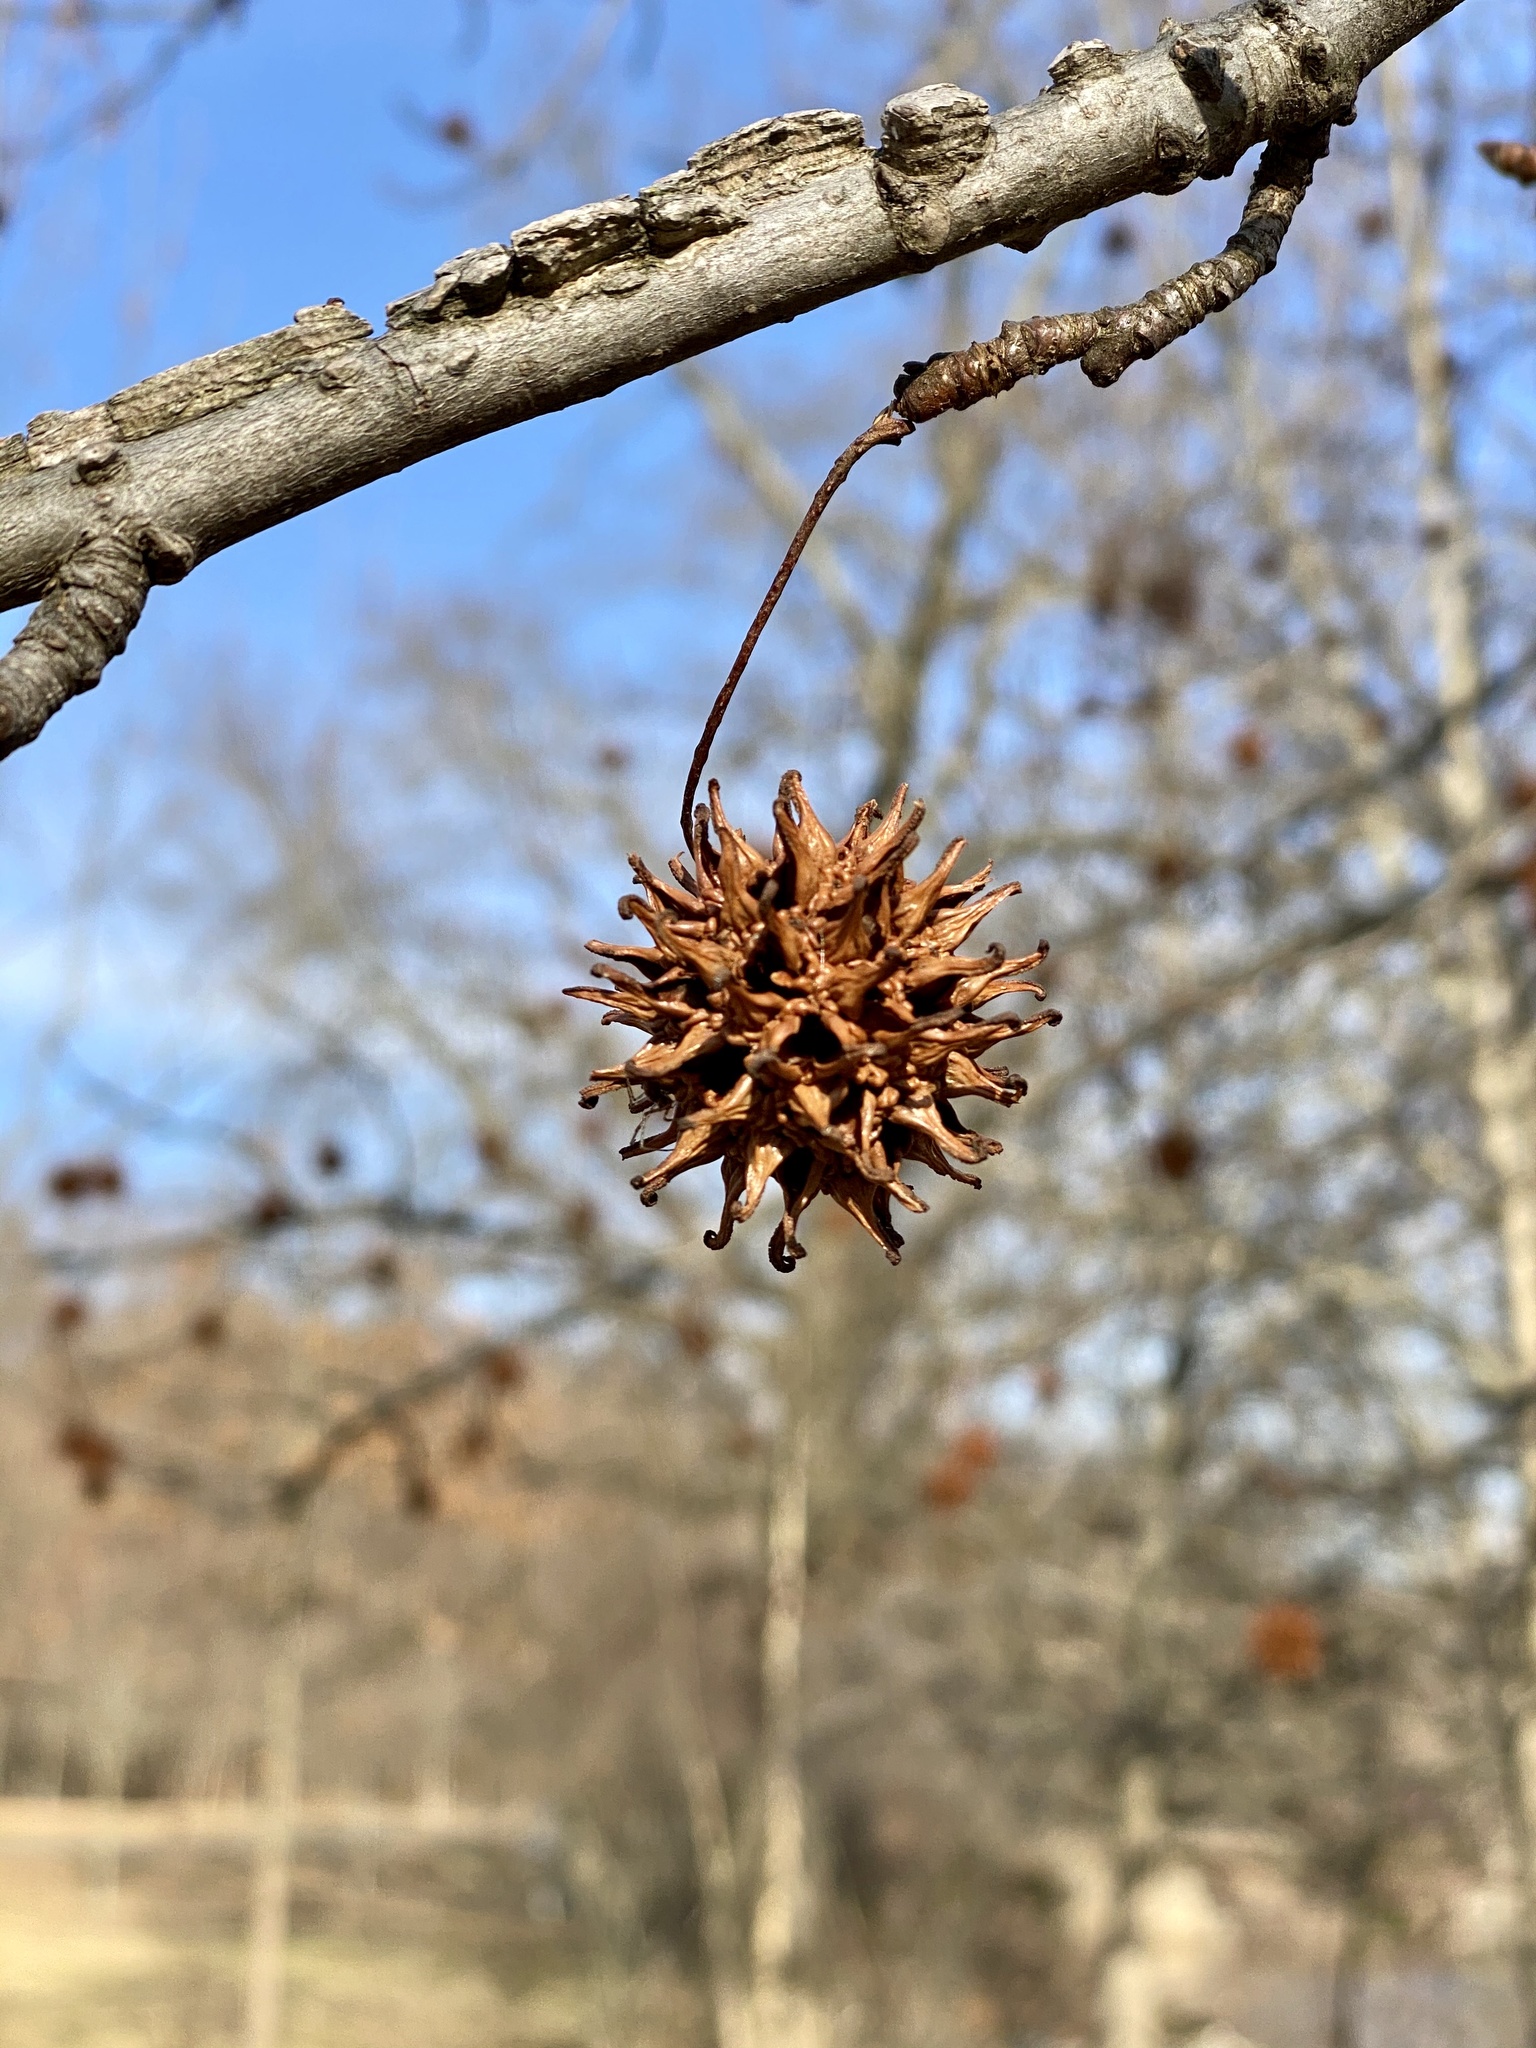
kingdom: Plantae
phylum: Tracheophyta
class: Magnoliopsida
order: Saxifragales
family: Altingiaceae
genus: Liquidambar
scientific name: Liquidambar styraciflua
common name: Sweet gum
